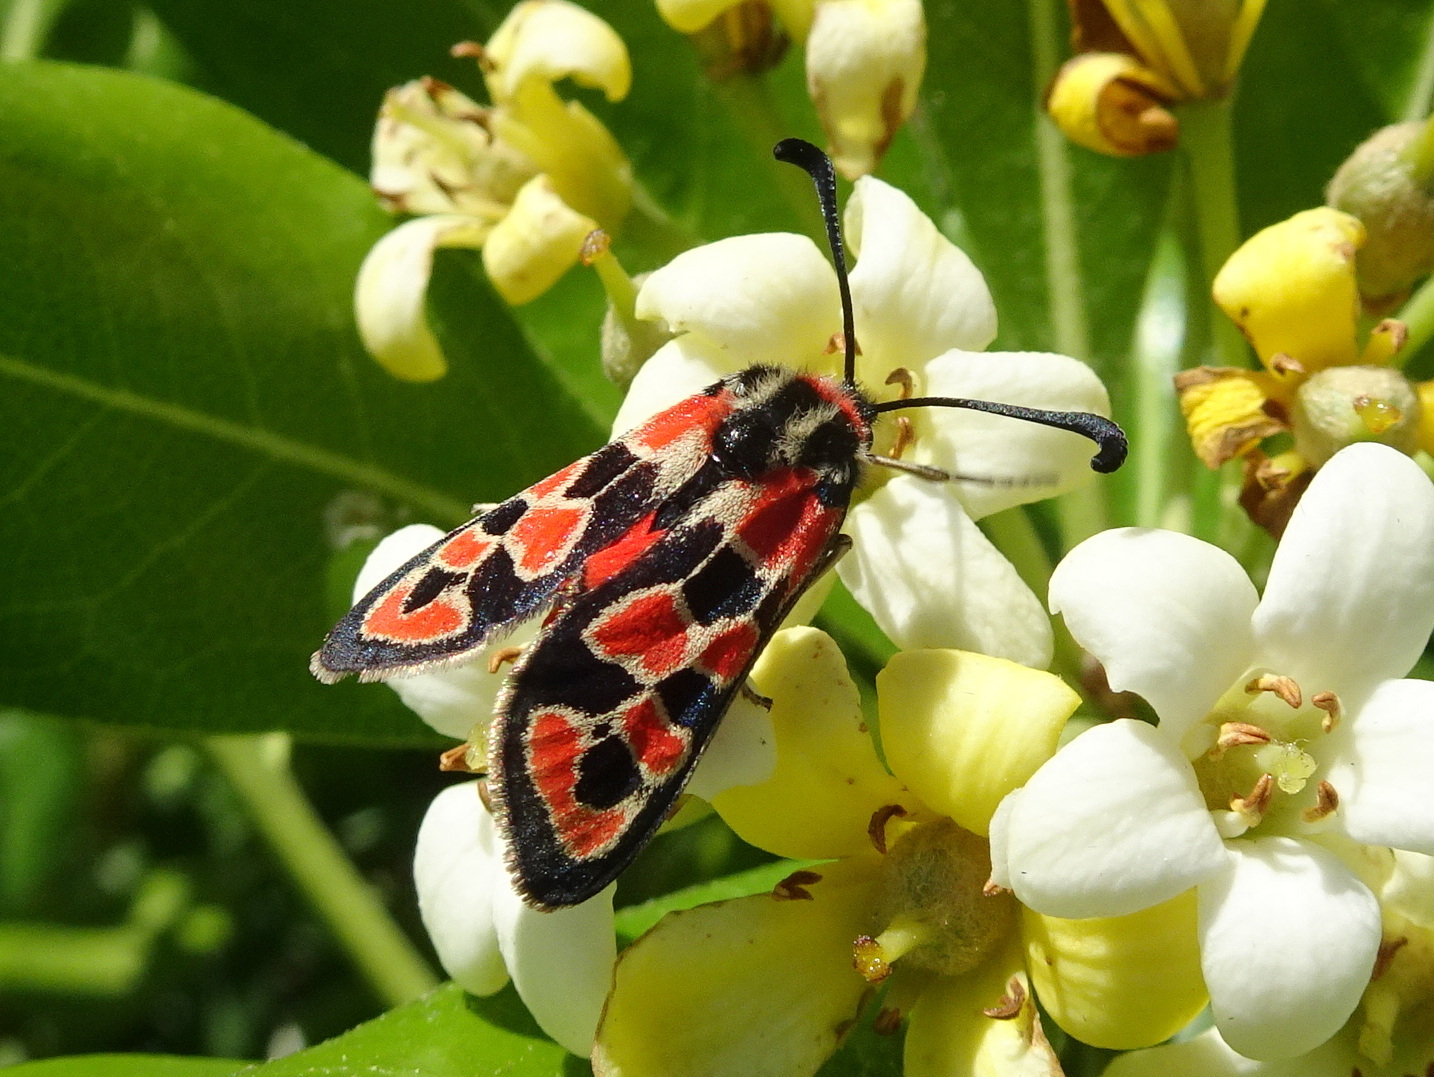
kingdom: Animalia
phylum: Arthropoda
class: Insecta
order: Lepidoptera
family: Zygaenidae
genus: Zygaena
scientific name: Zygaena fausta
